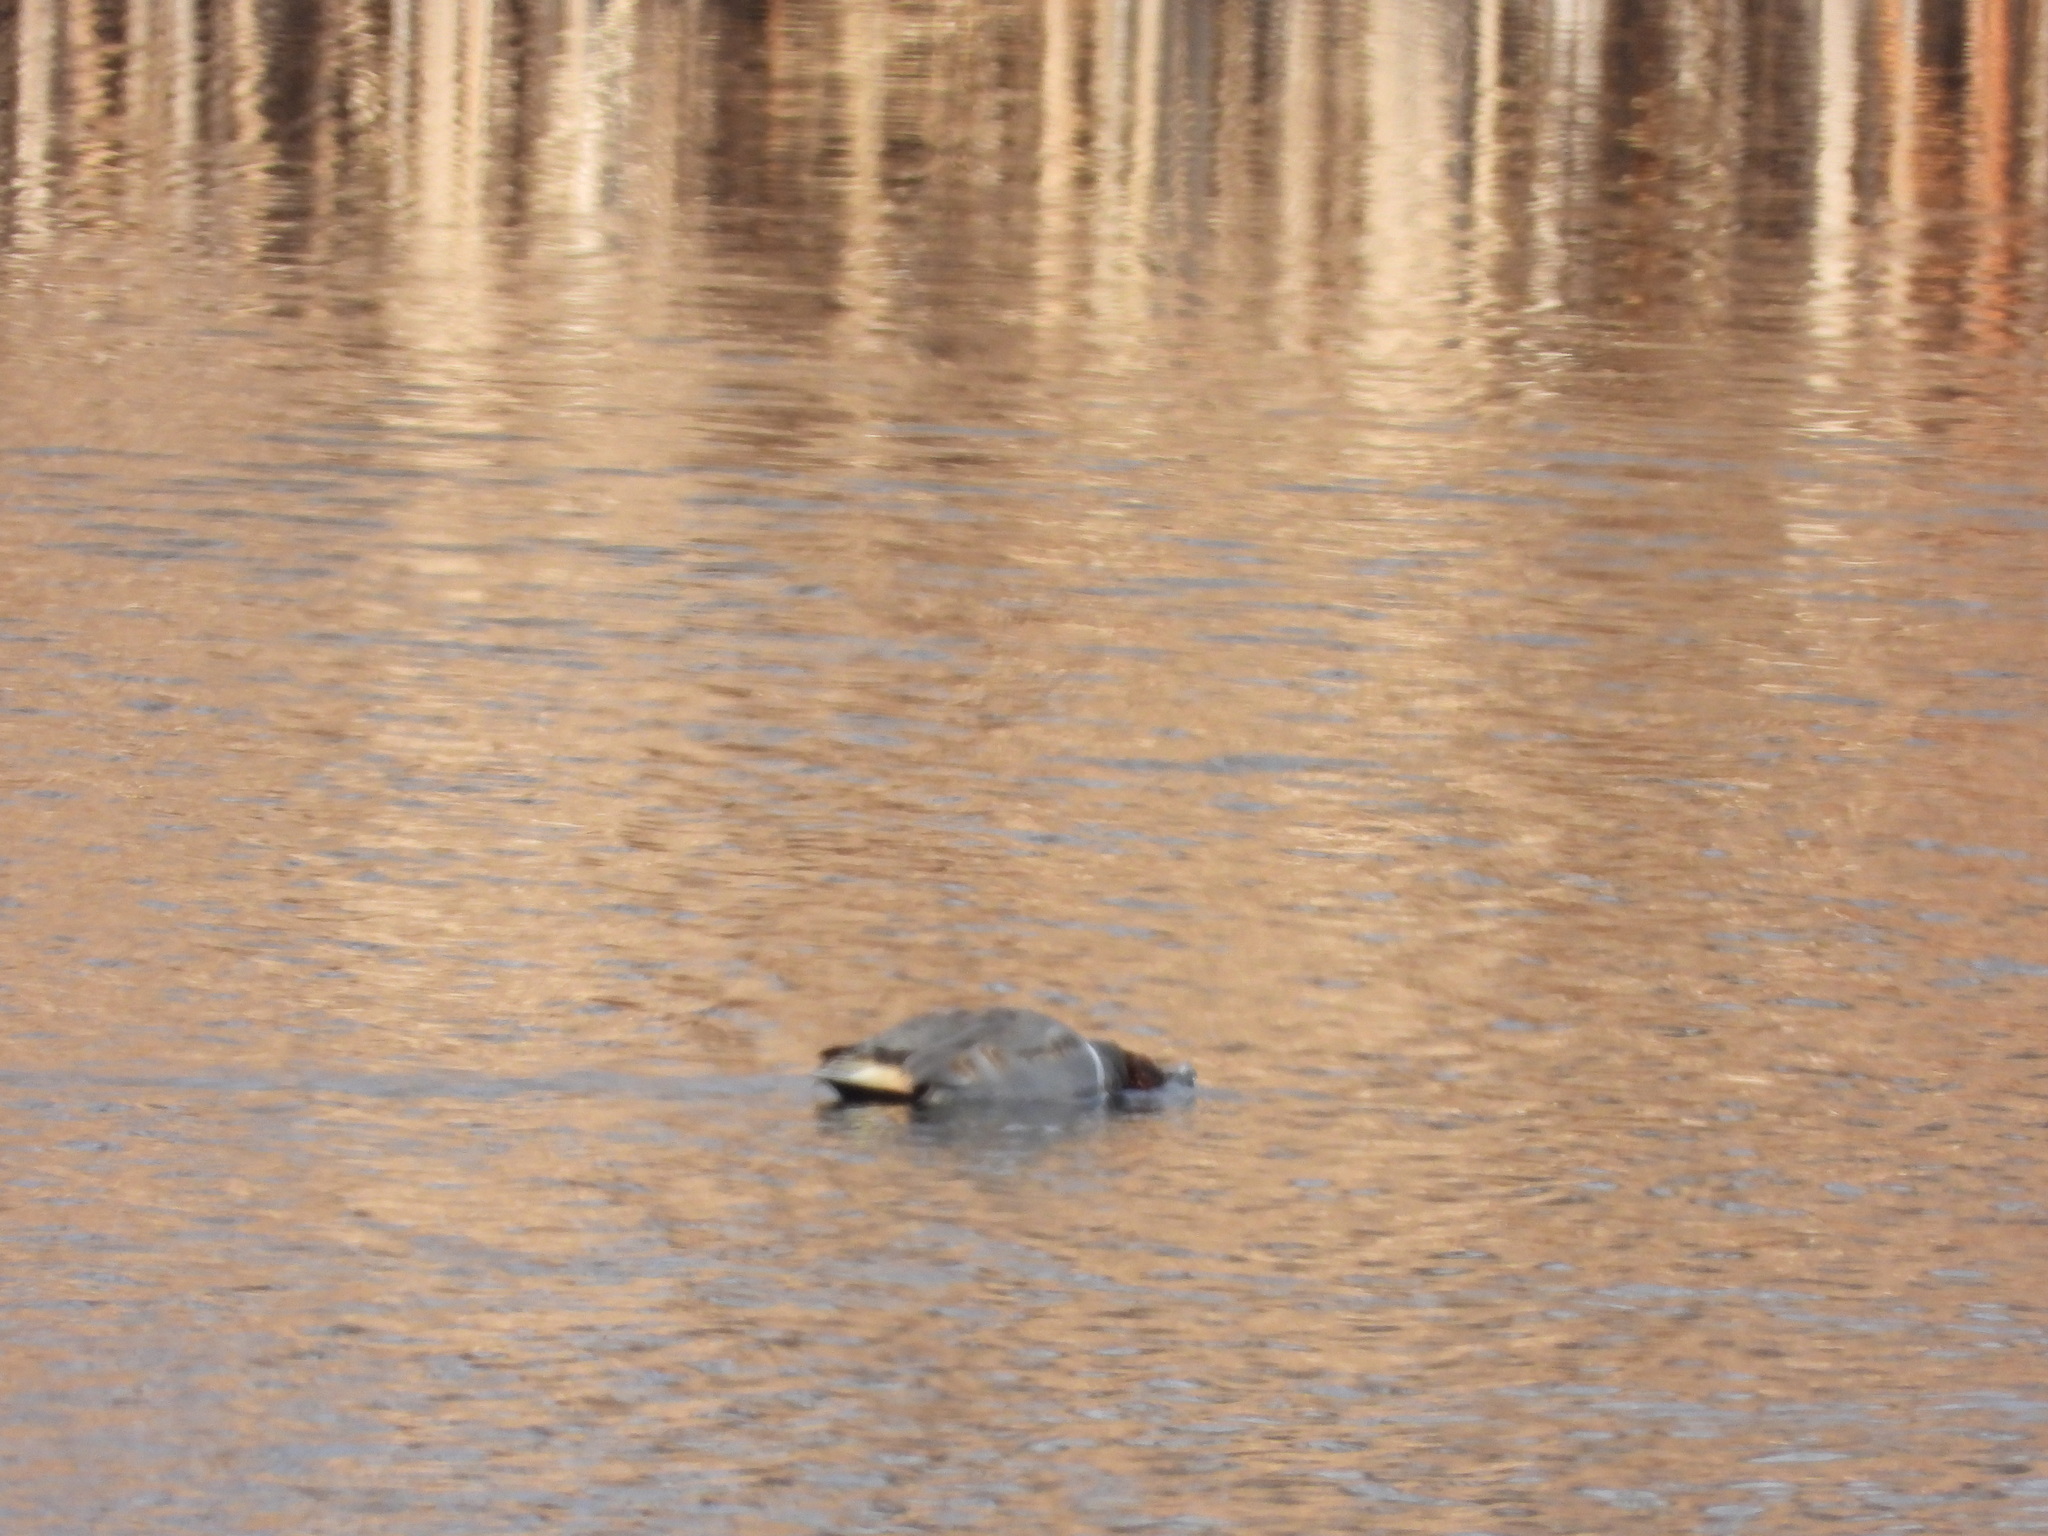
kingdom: Animalia
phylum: Chordata
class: Aves
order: Anseriformes
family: Anatidae
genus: Anas
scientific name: Anas crecca
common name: Eurasian teal
